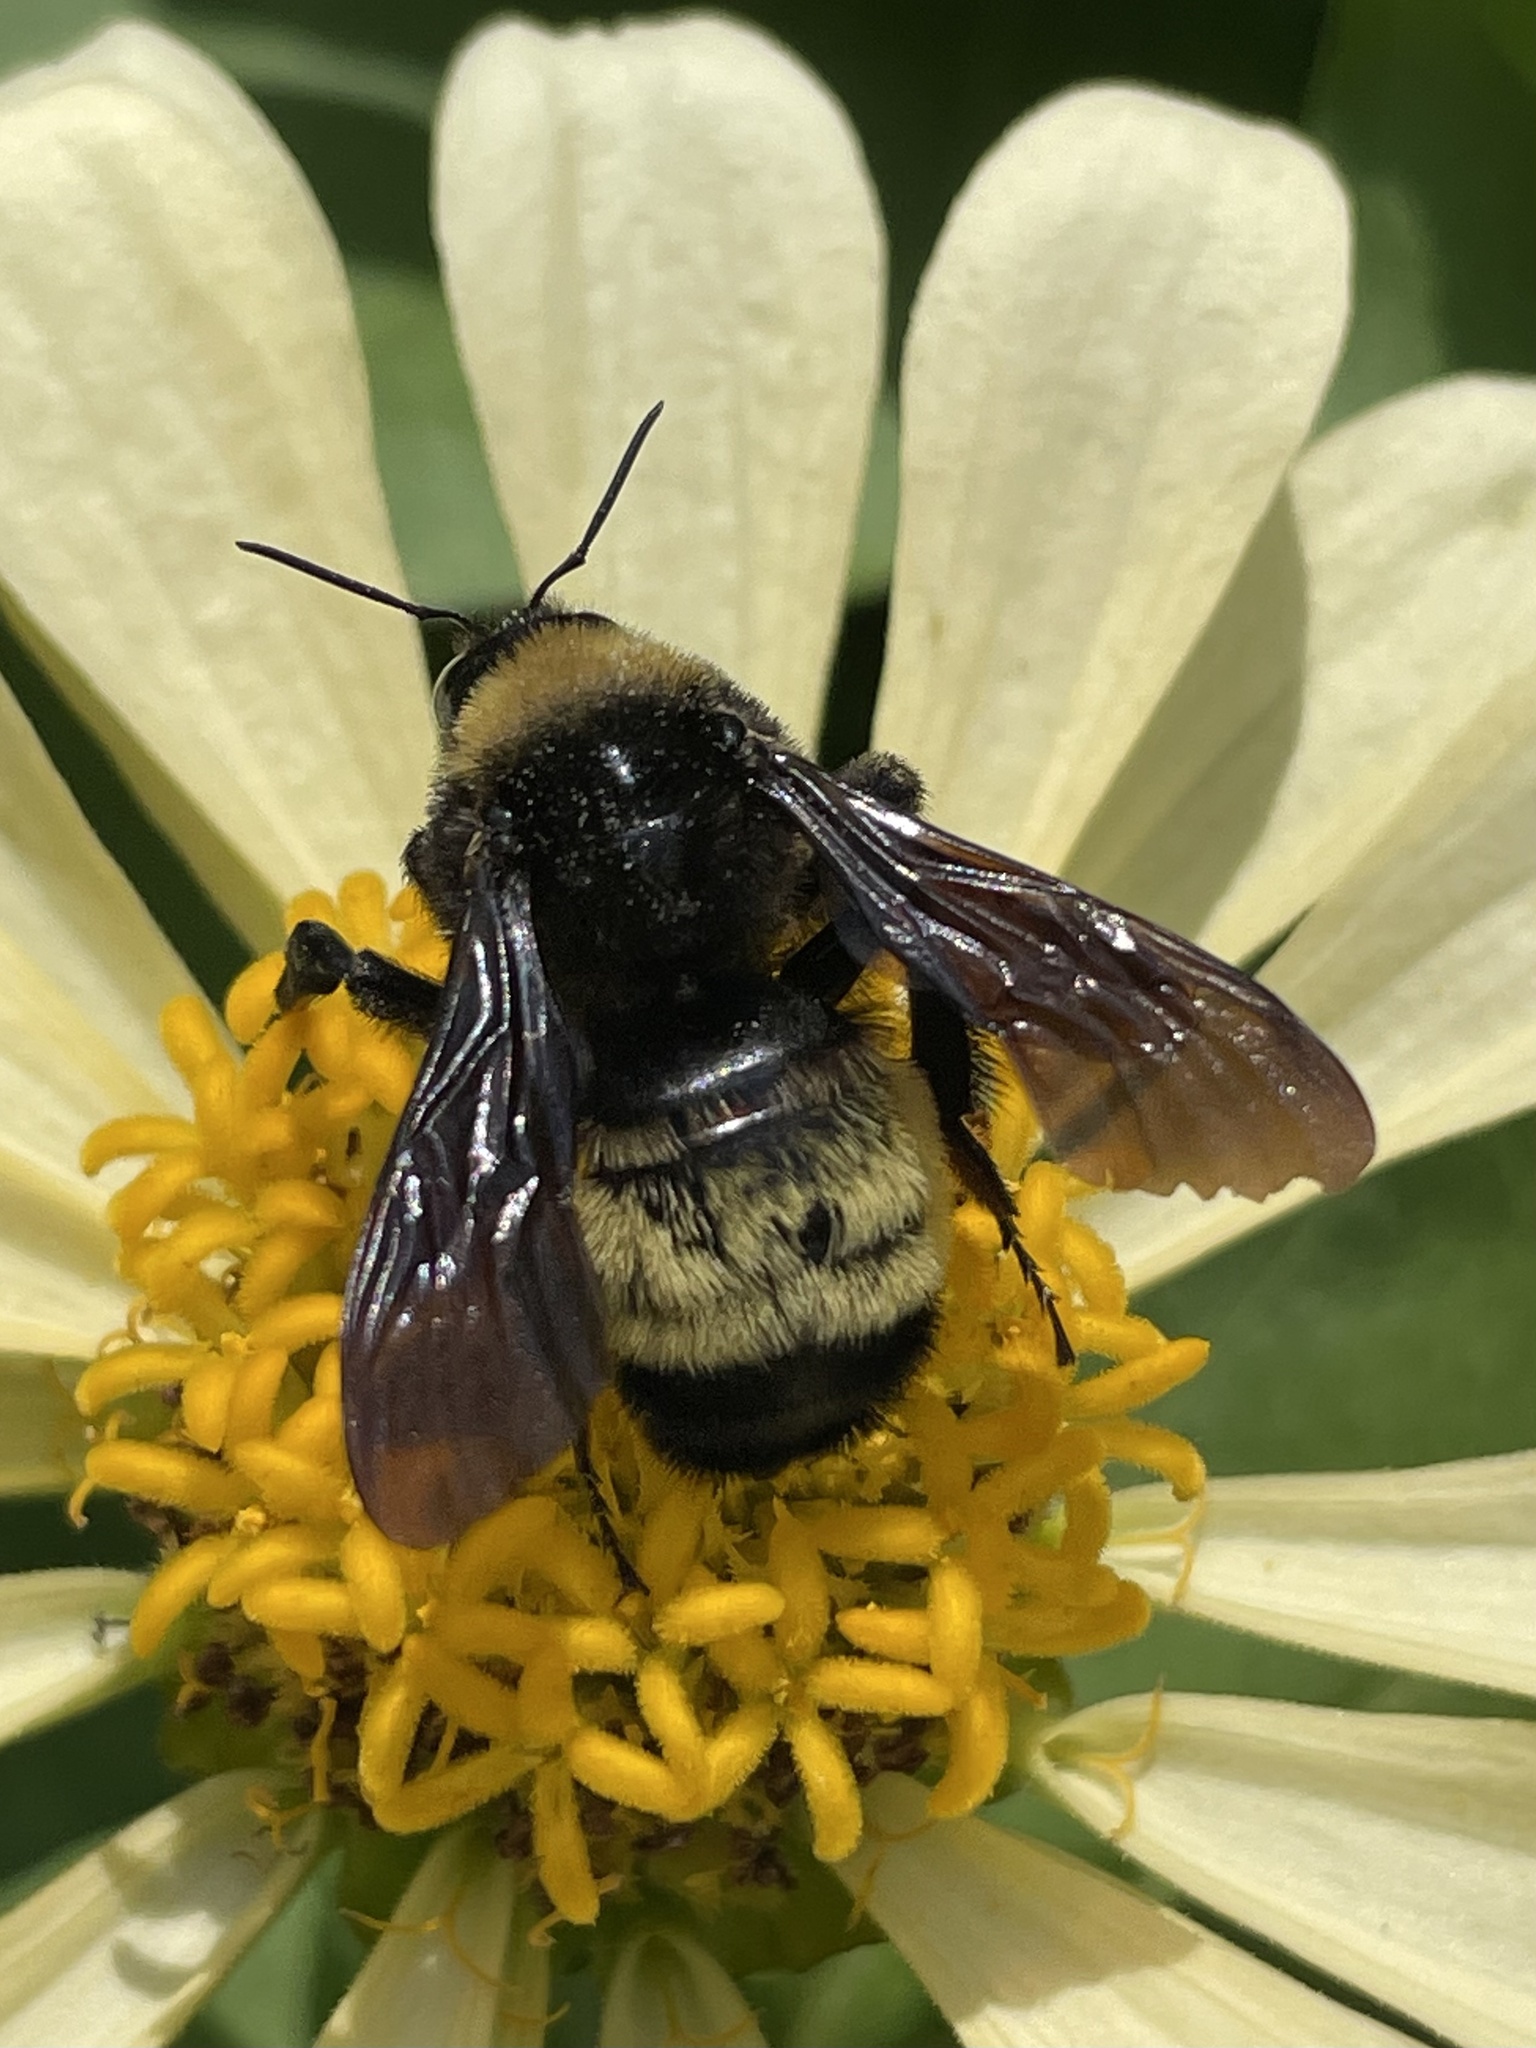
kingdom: Animalia
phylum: Arthropoda
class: Insecta
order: Hymenoptera
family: Apidae
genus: Bombus
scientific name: Bombus pensylvanicus
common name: Bumble bee
